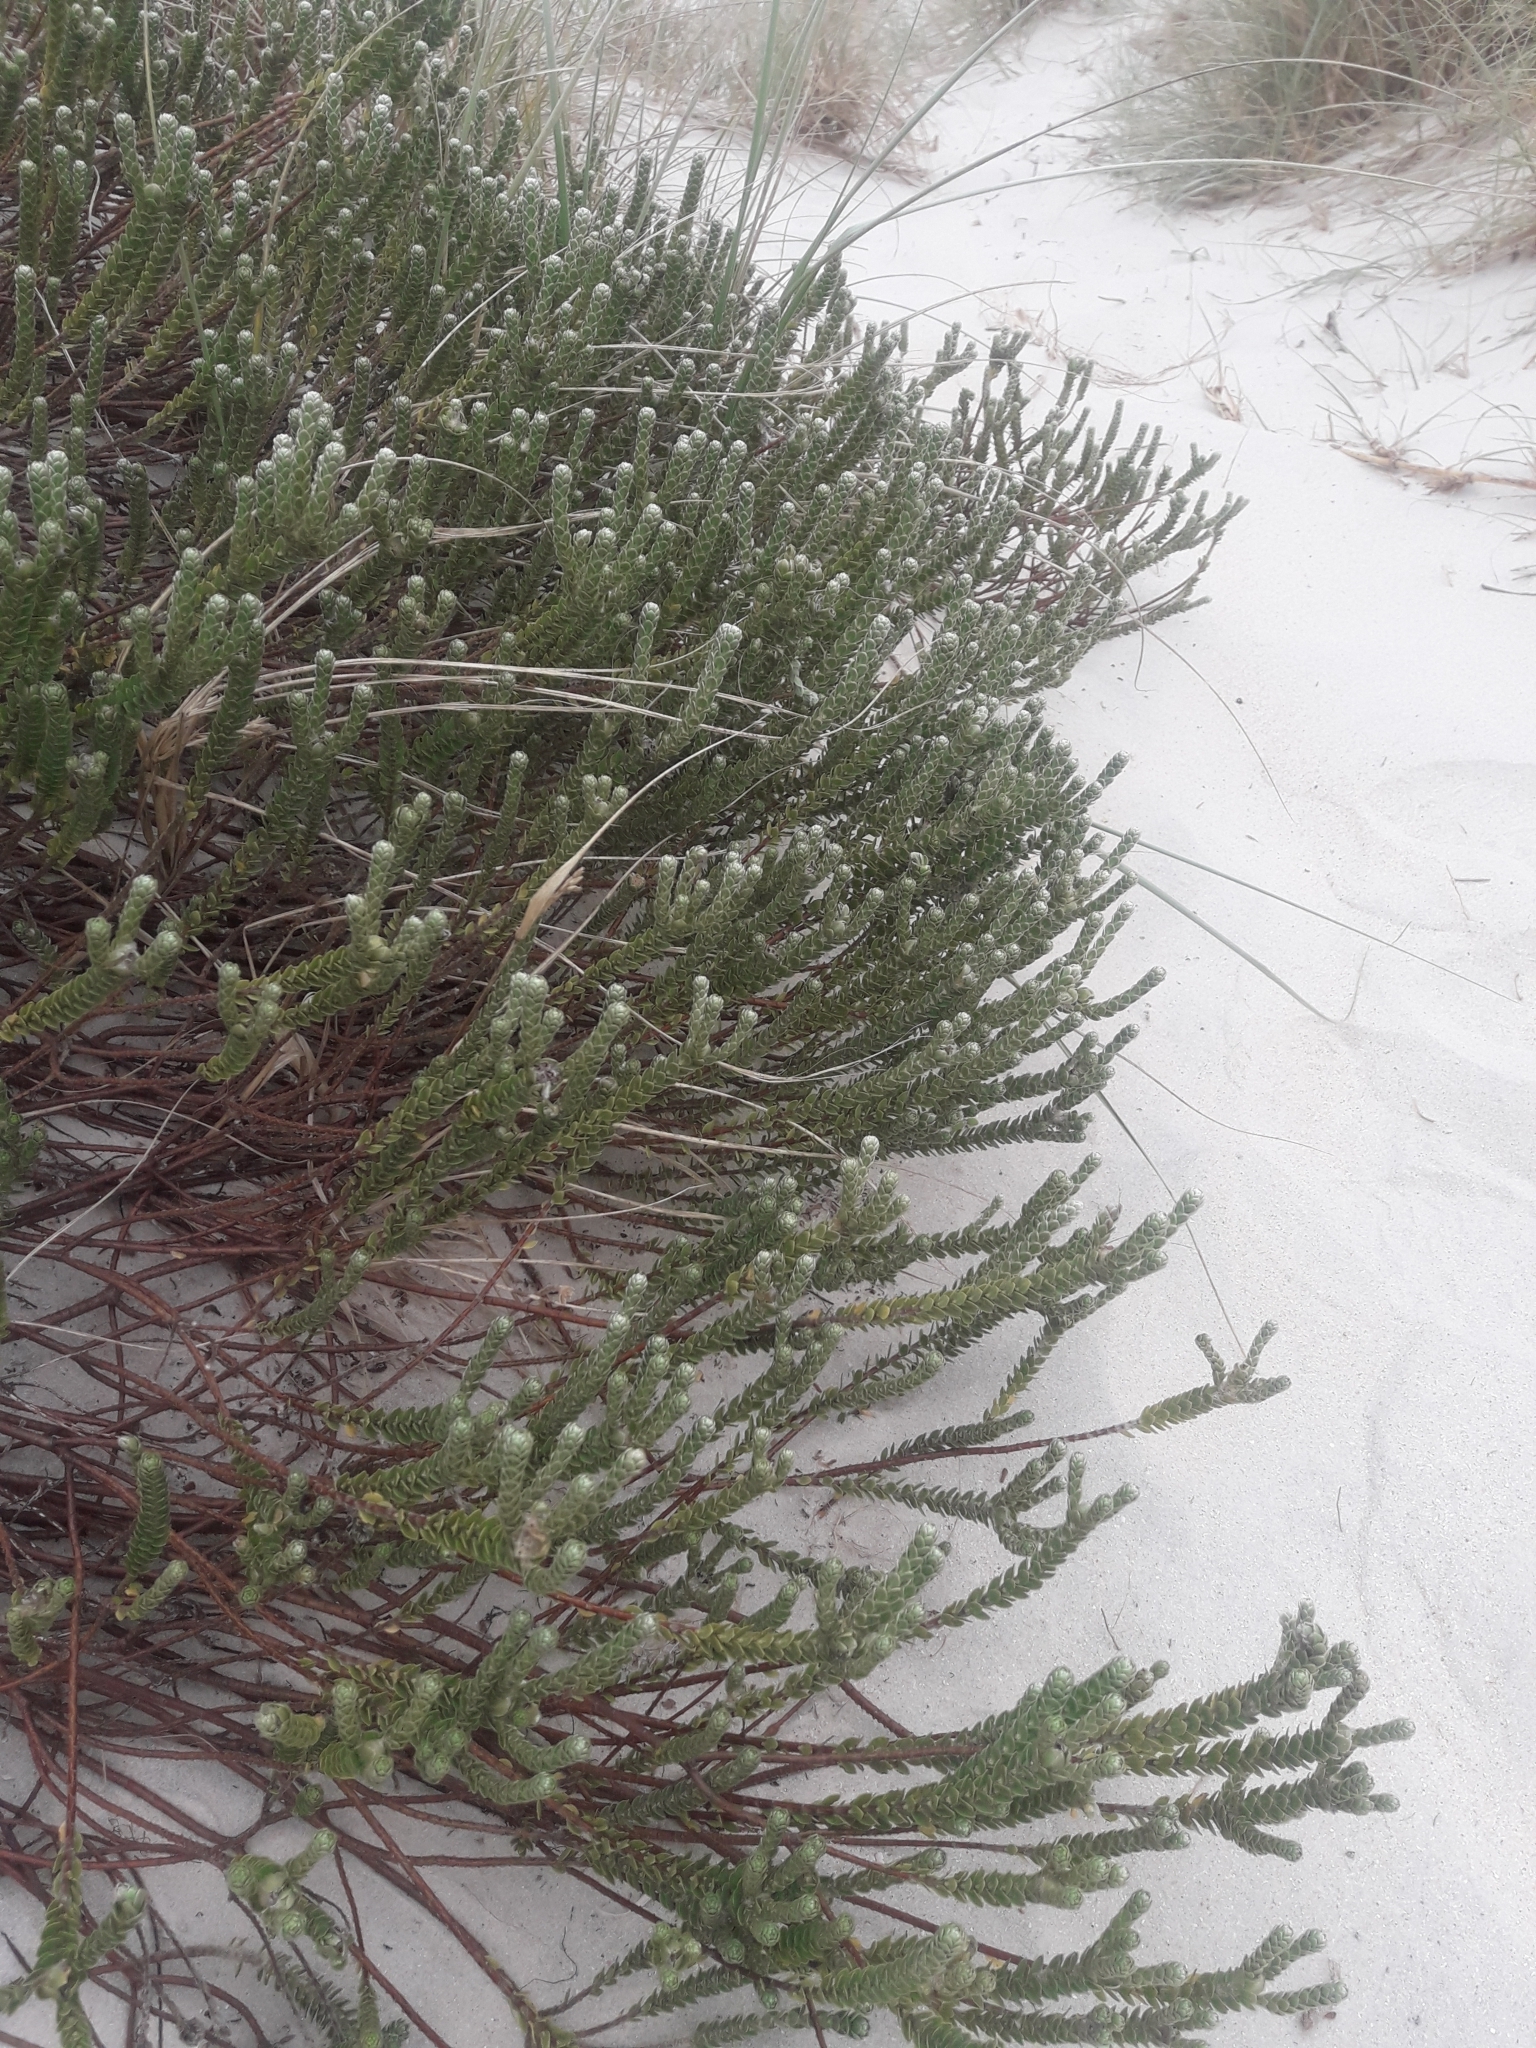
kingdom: Plantae
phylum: Tracheophyta
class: Magnoliopsida
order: Malvales
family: Thymelaeaceae
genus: Pimelea
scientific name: Pimelea villosa
